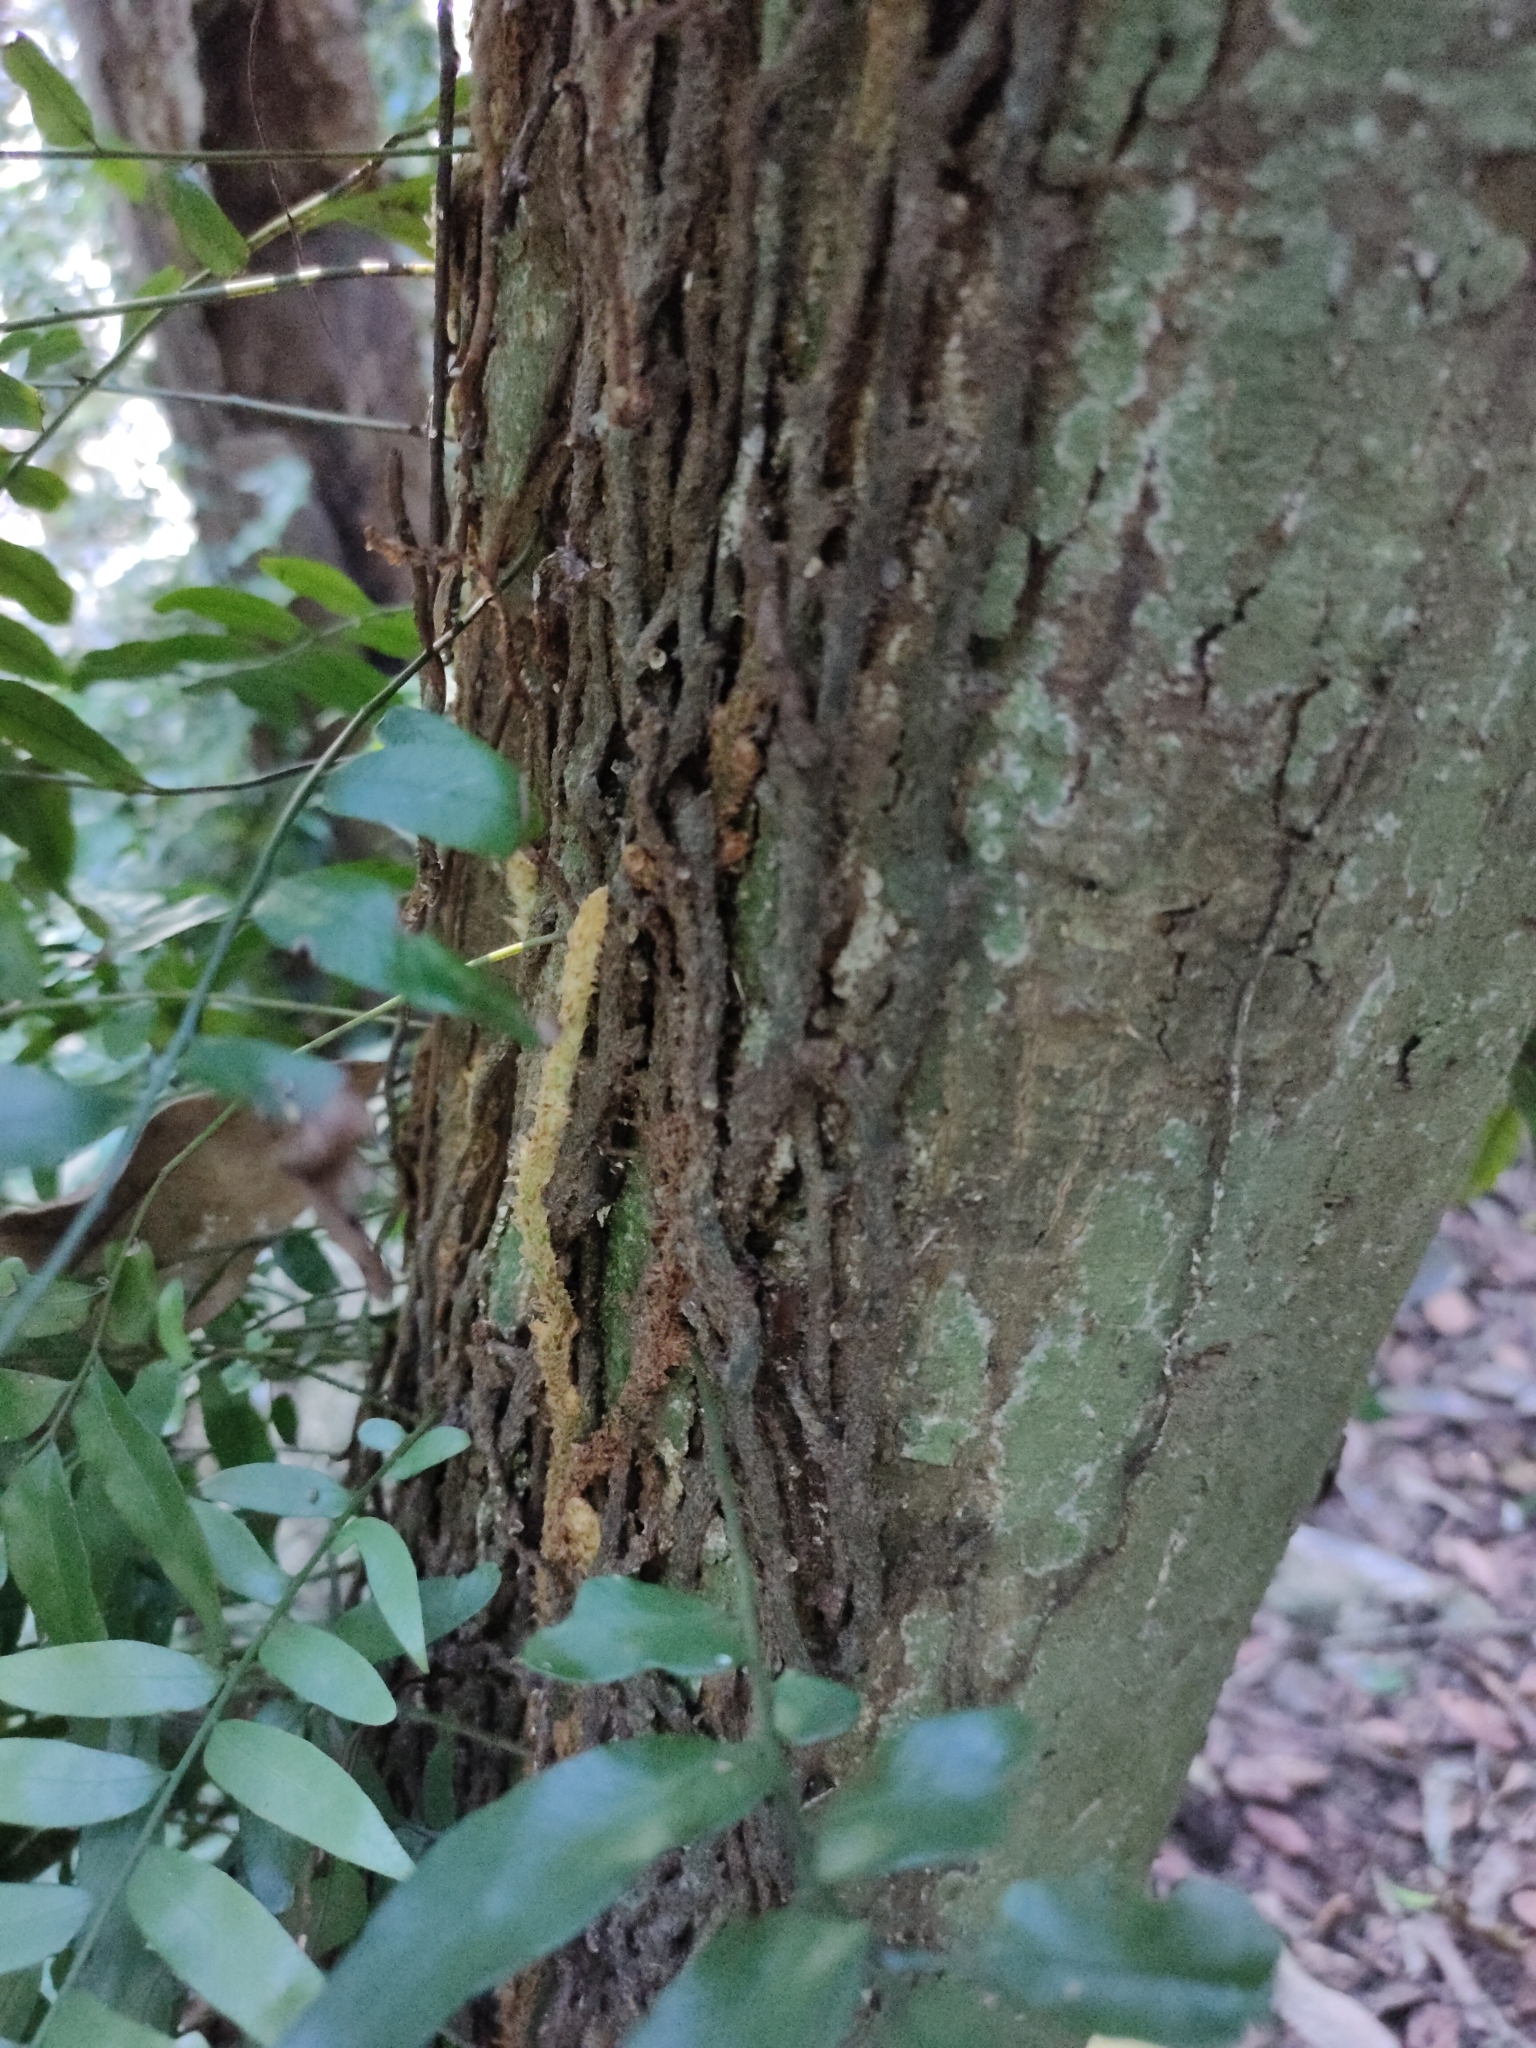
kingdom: Plantae
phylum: Tracheophyta
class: Polypodiopsida
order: Polypodiales
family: Tectariaceae
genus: Arthropteris
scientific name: Arthropteris tenella
